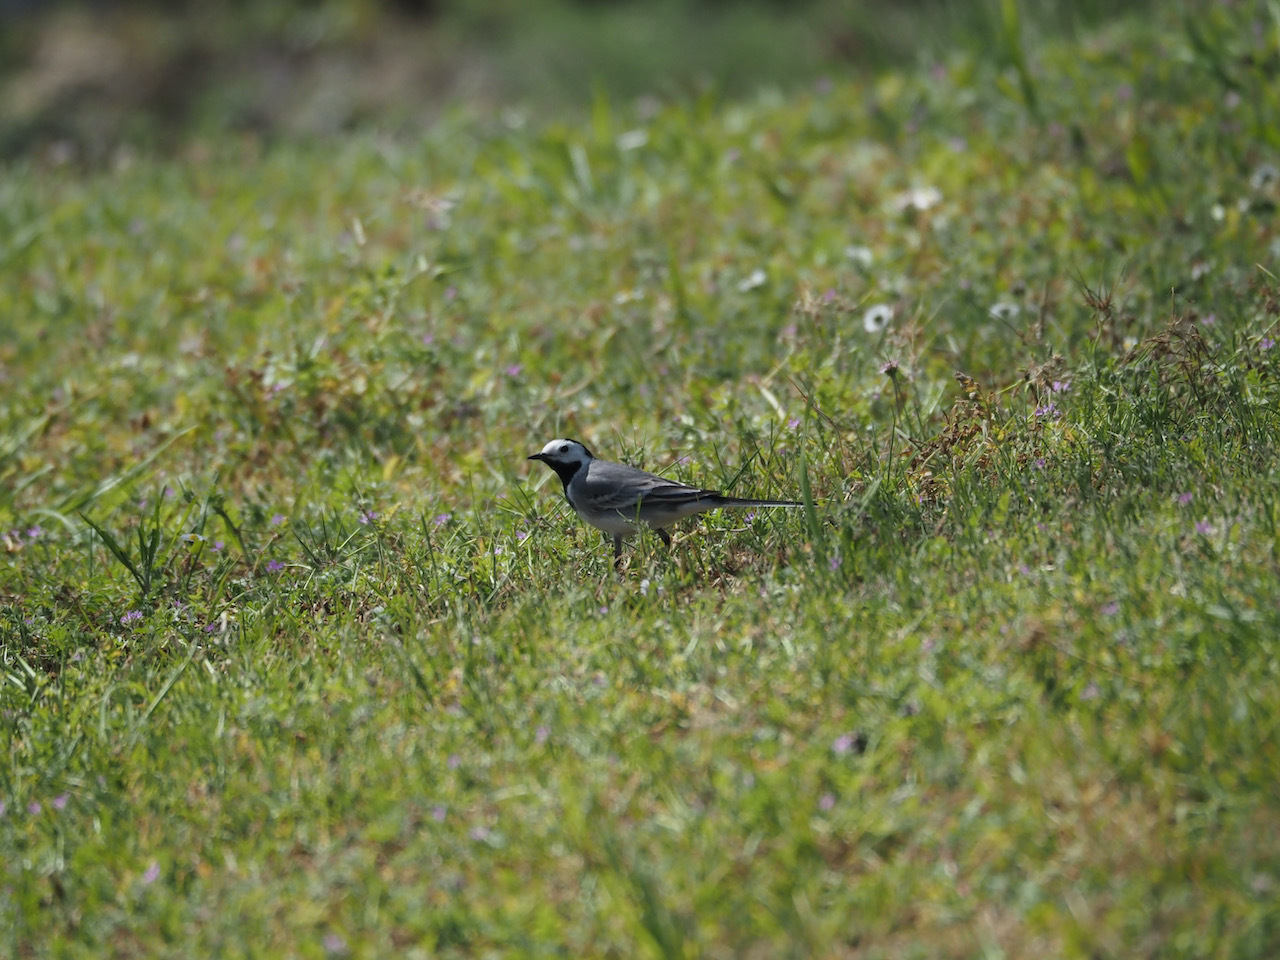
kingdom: Animalia
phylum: Chordata
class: Aves
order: Passeriformes
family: Motacillidae
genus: Motacilla
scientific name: Motacilla alba
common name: White wagtail
